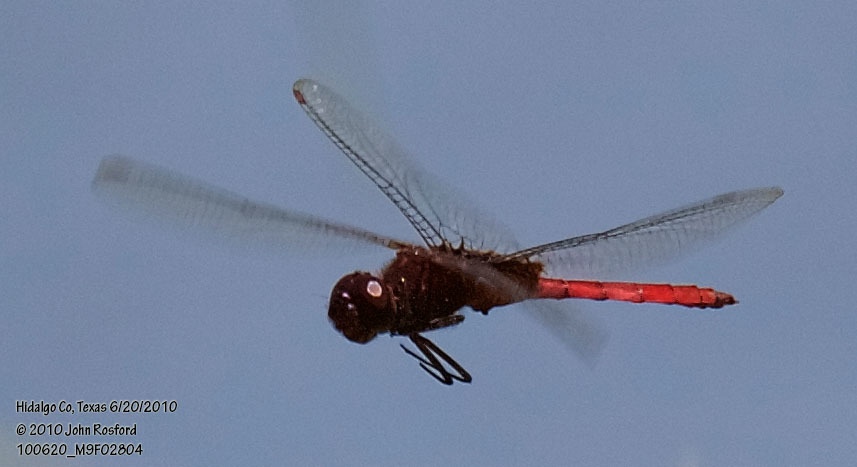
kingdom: Animalia
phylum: Arthropoda
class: Insecta
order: Odonata
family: Libellulidae
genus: Tauriphila
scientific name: Tauriphila argo
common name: Arch-tipped glider
